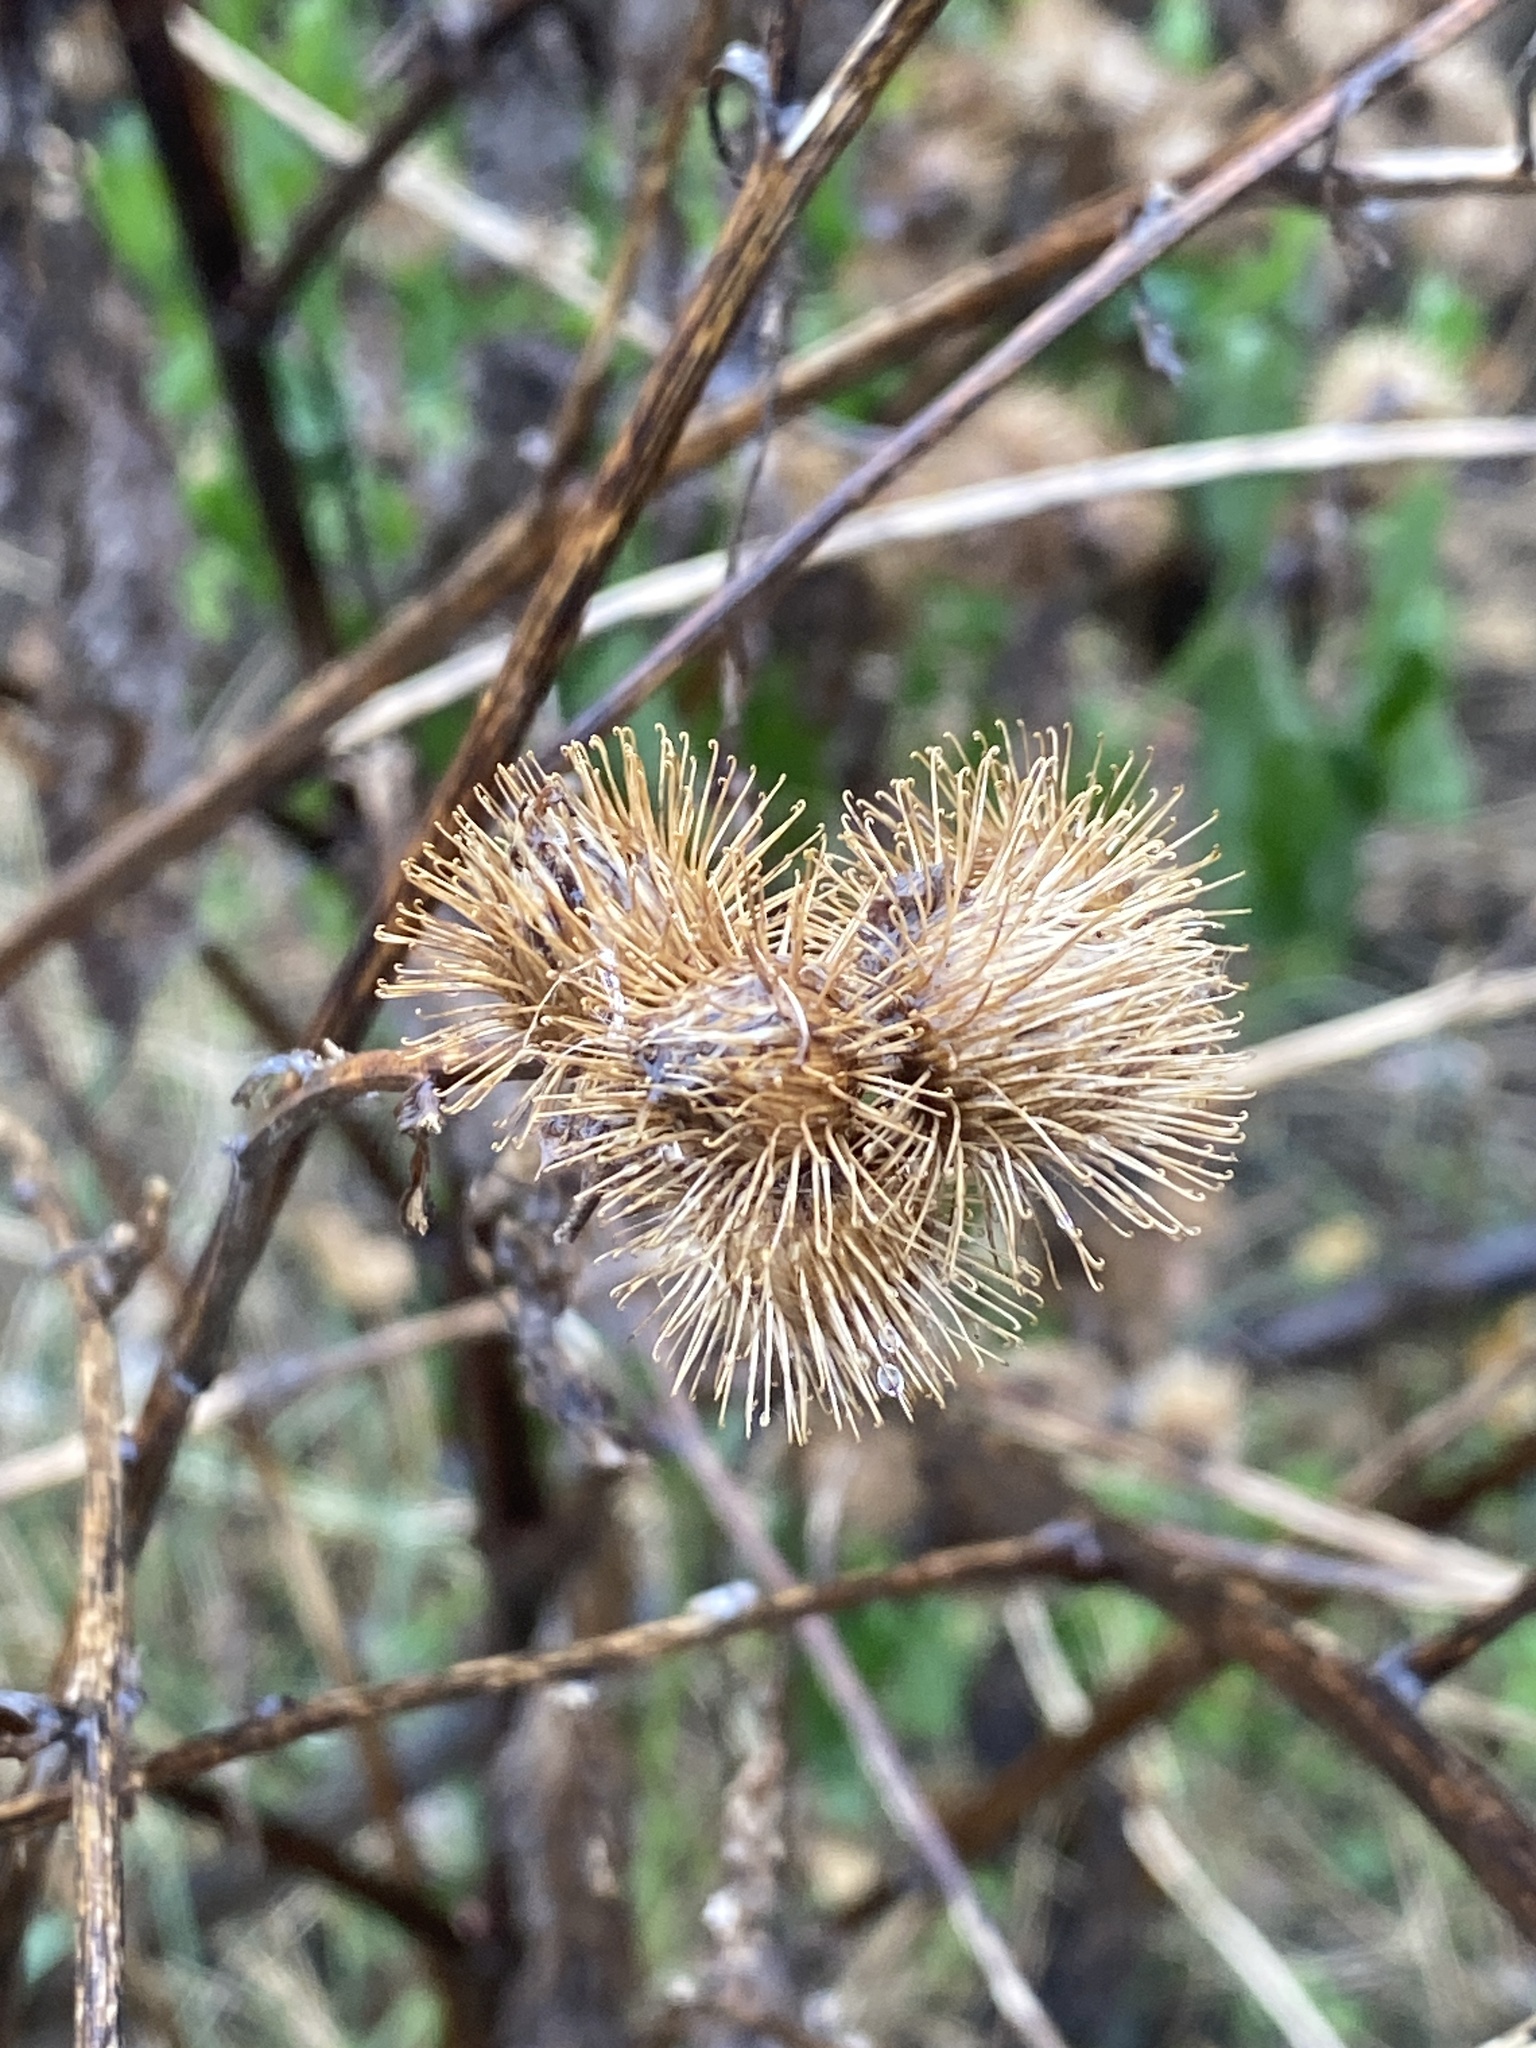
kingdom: Plantae
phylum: Tracheophyta
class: Magnoliopsida
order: Asterales
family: Asteraceae
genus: Arctium
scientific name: Arctium minus
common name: Lesser burdock
